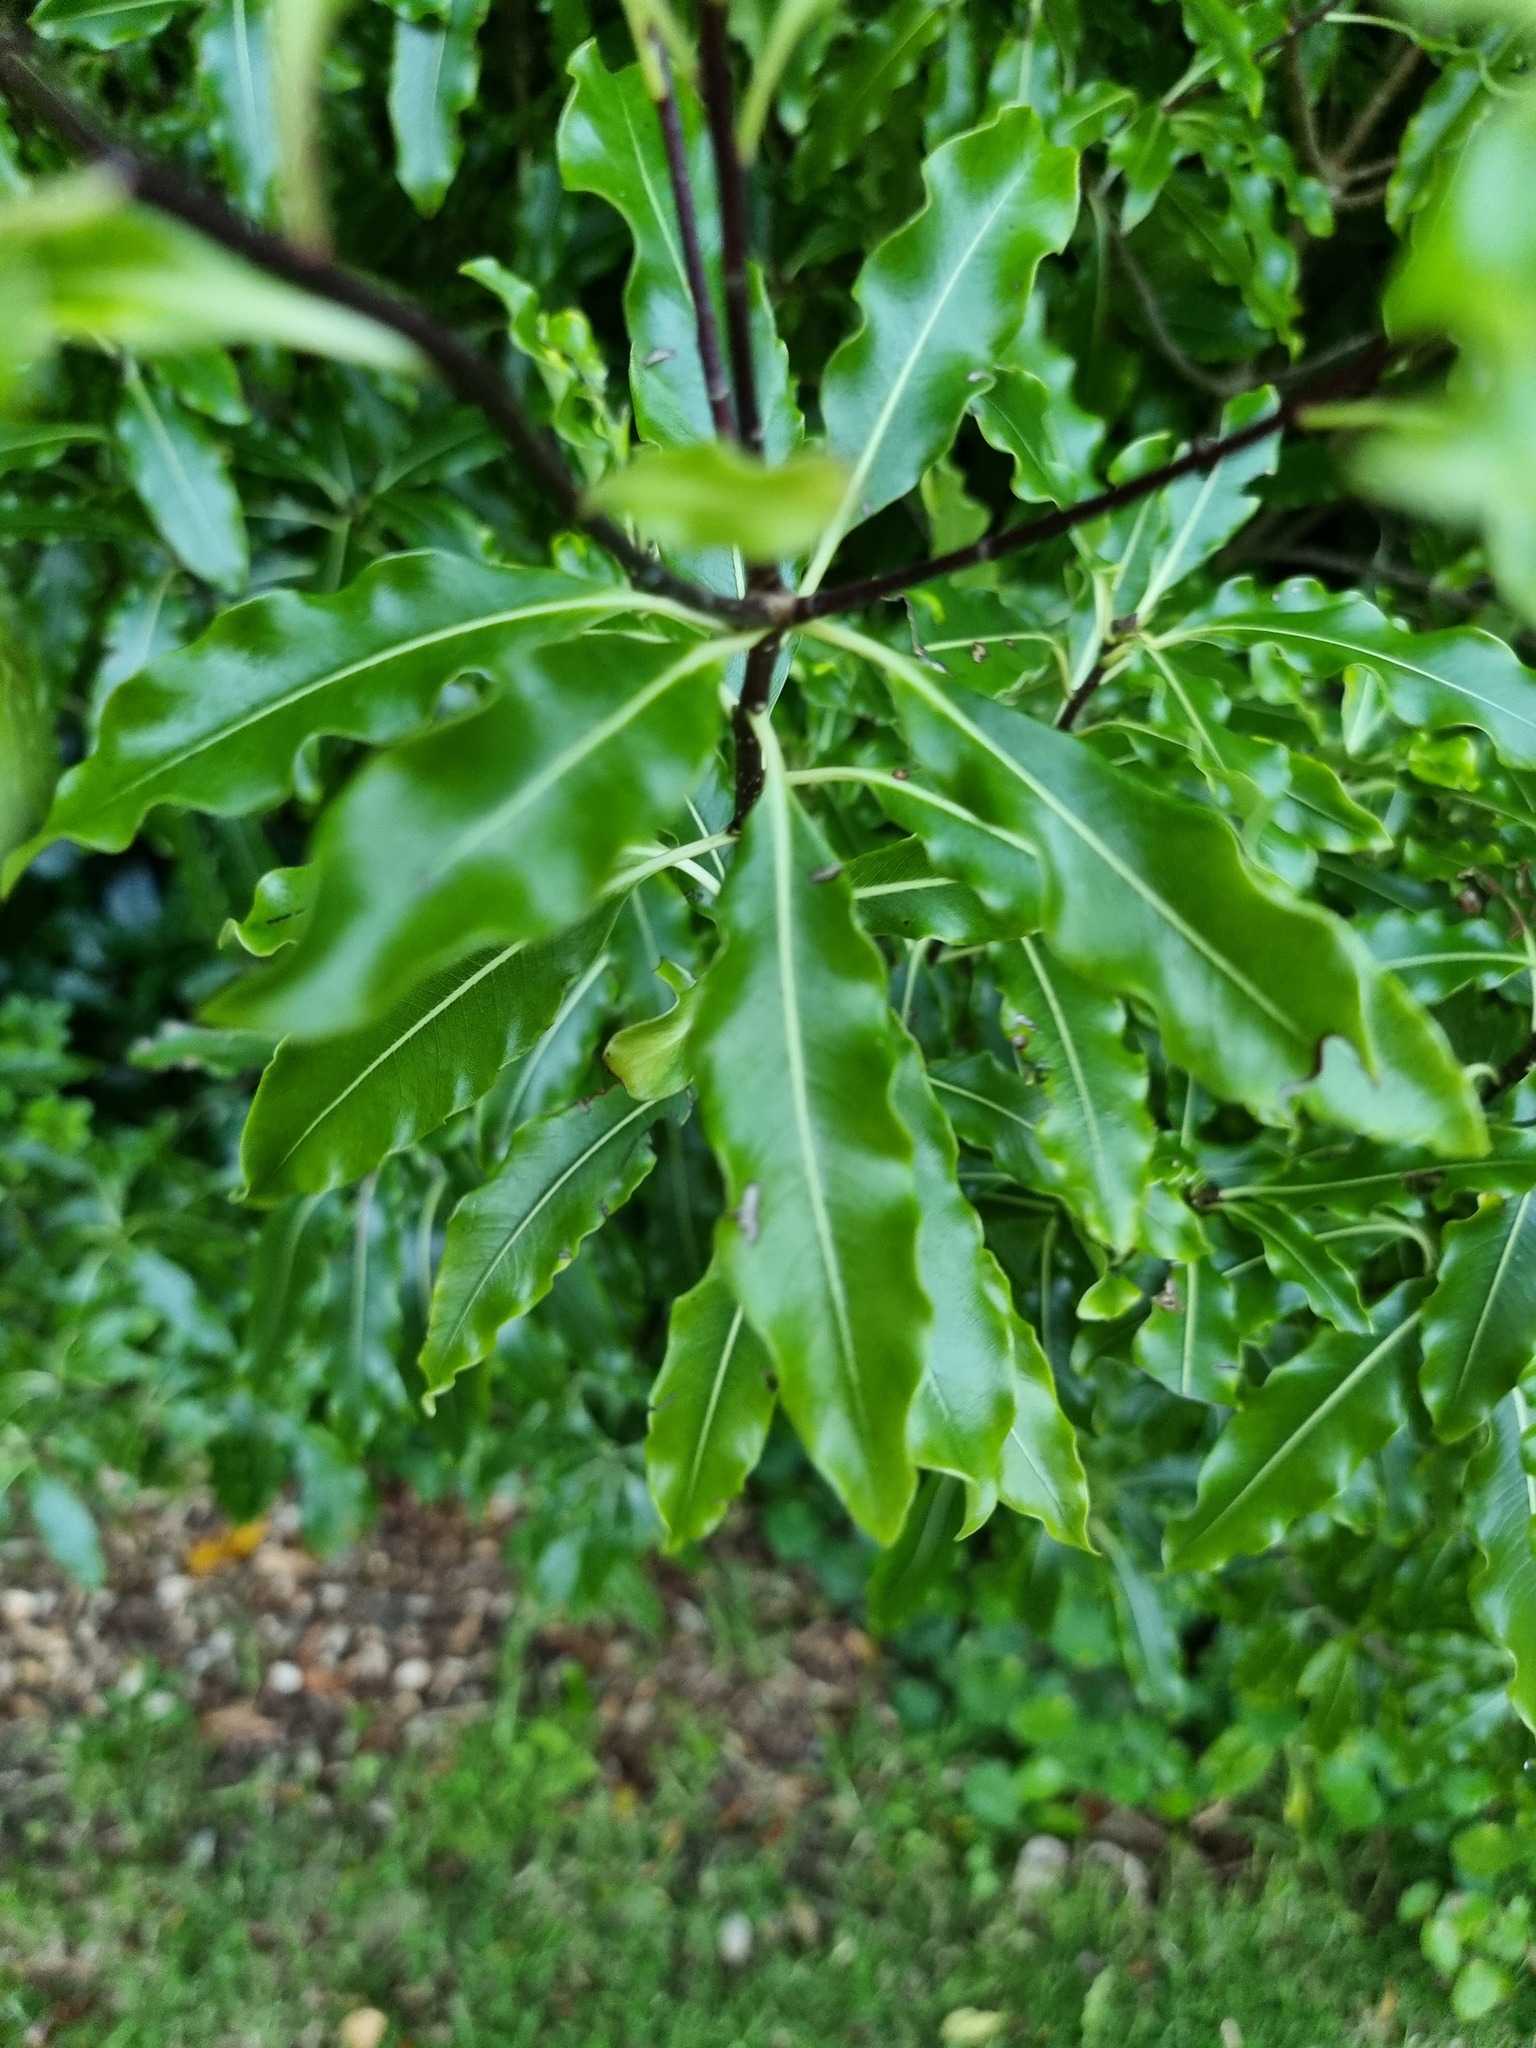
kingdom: Plantae
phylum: Tracheophyta
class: Magnoliopsida
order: Apiales
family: Pittosporaceae
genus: Pittosporum
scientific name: Pittosporum eugenioides
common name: Lemonwood
